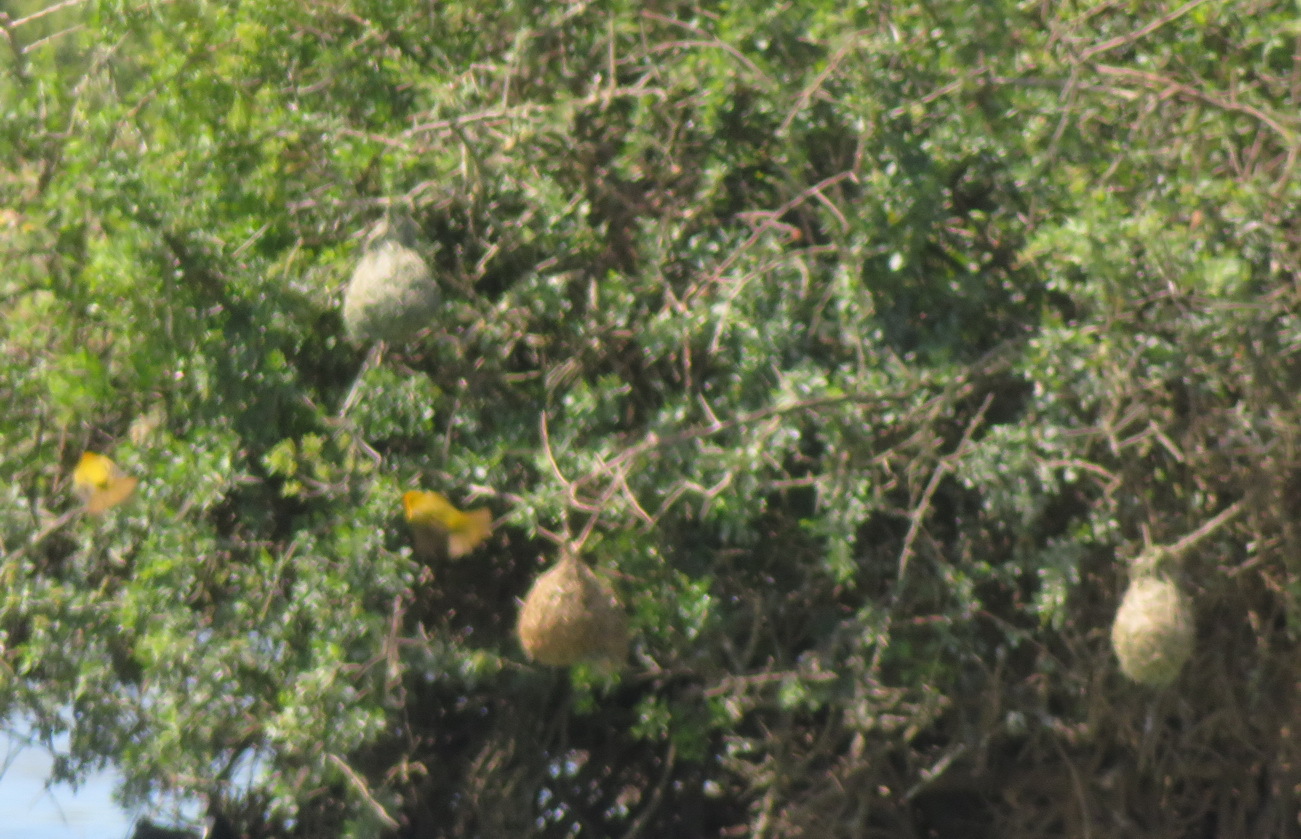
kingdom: Animalia
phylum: Chordata
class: Aves
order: Passeriformes
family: Ploceidae
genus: Ploceus
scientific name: Ploceus capensis
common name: Cape weaver
